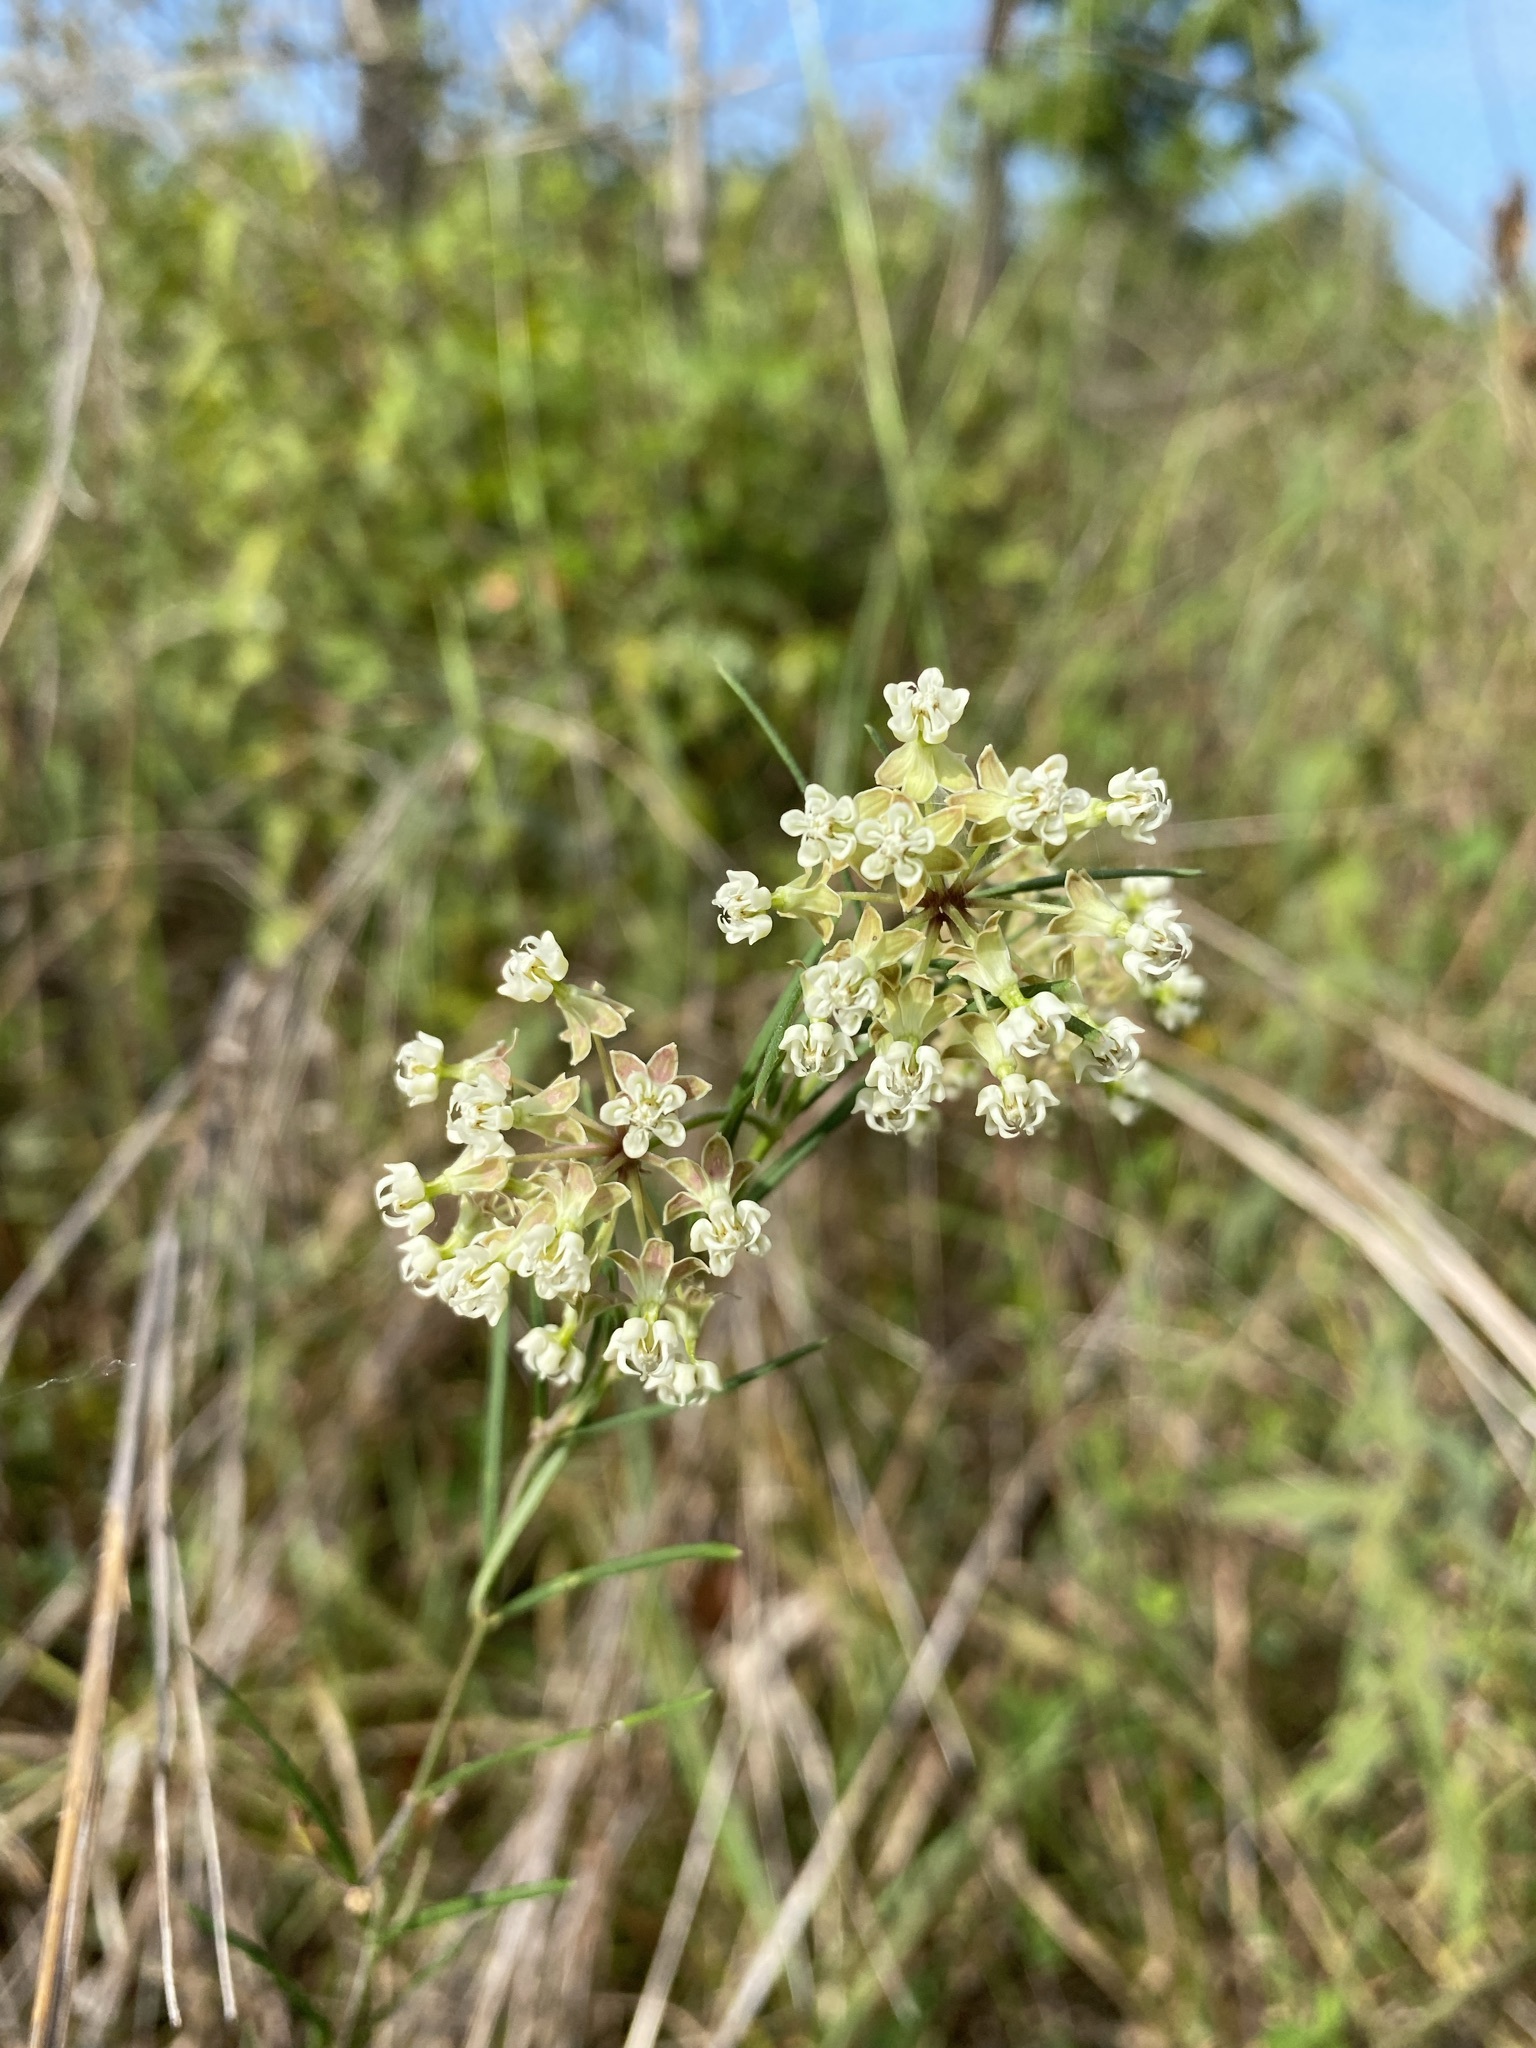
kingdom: Plantae
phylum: Tracheophyta
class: Magnoliopsida
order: Gentianales
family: Apocynaceae
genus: Asclepias
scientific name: Asclepias verticillata
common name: Eastern whorled milkweed
